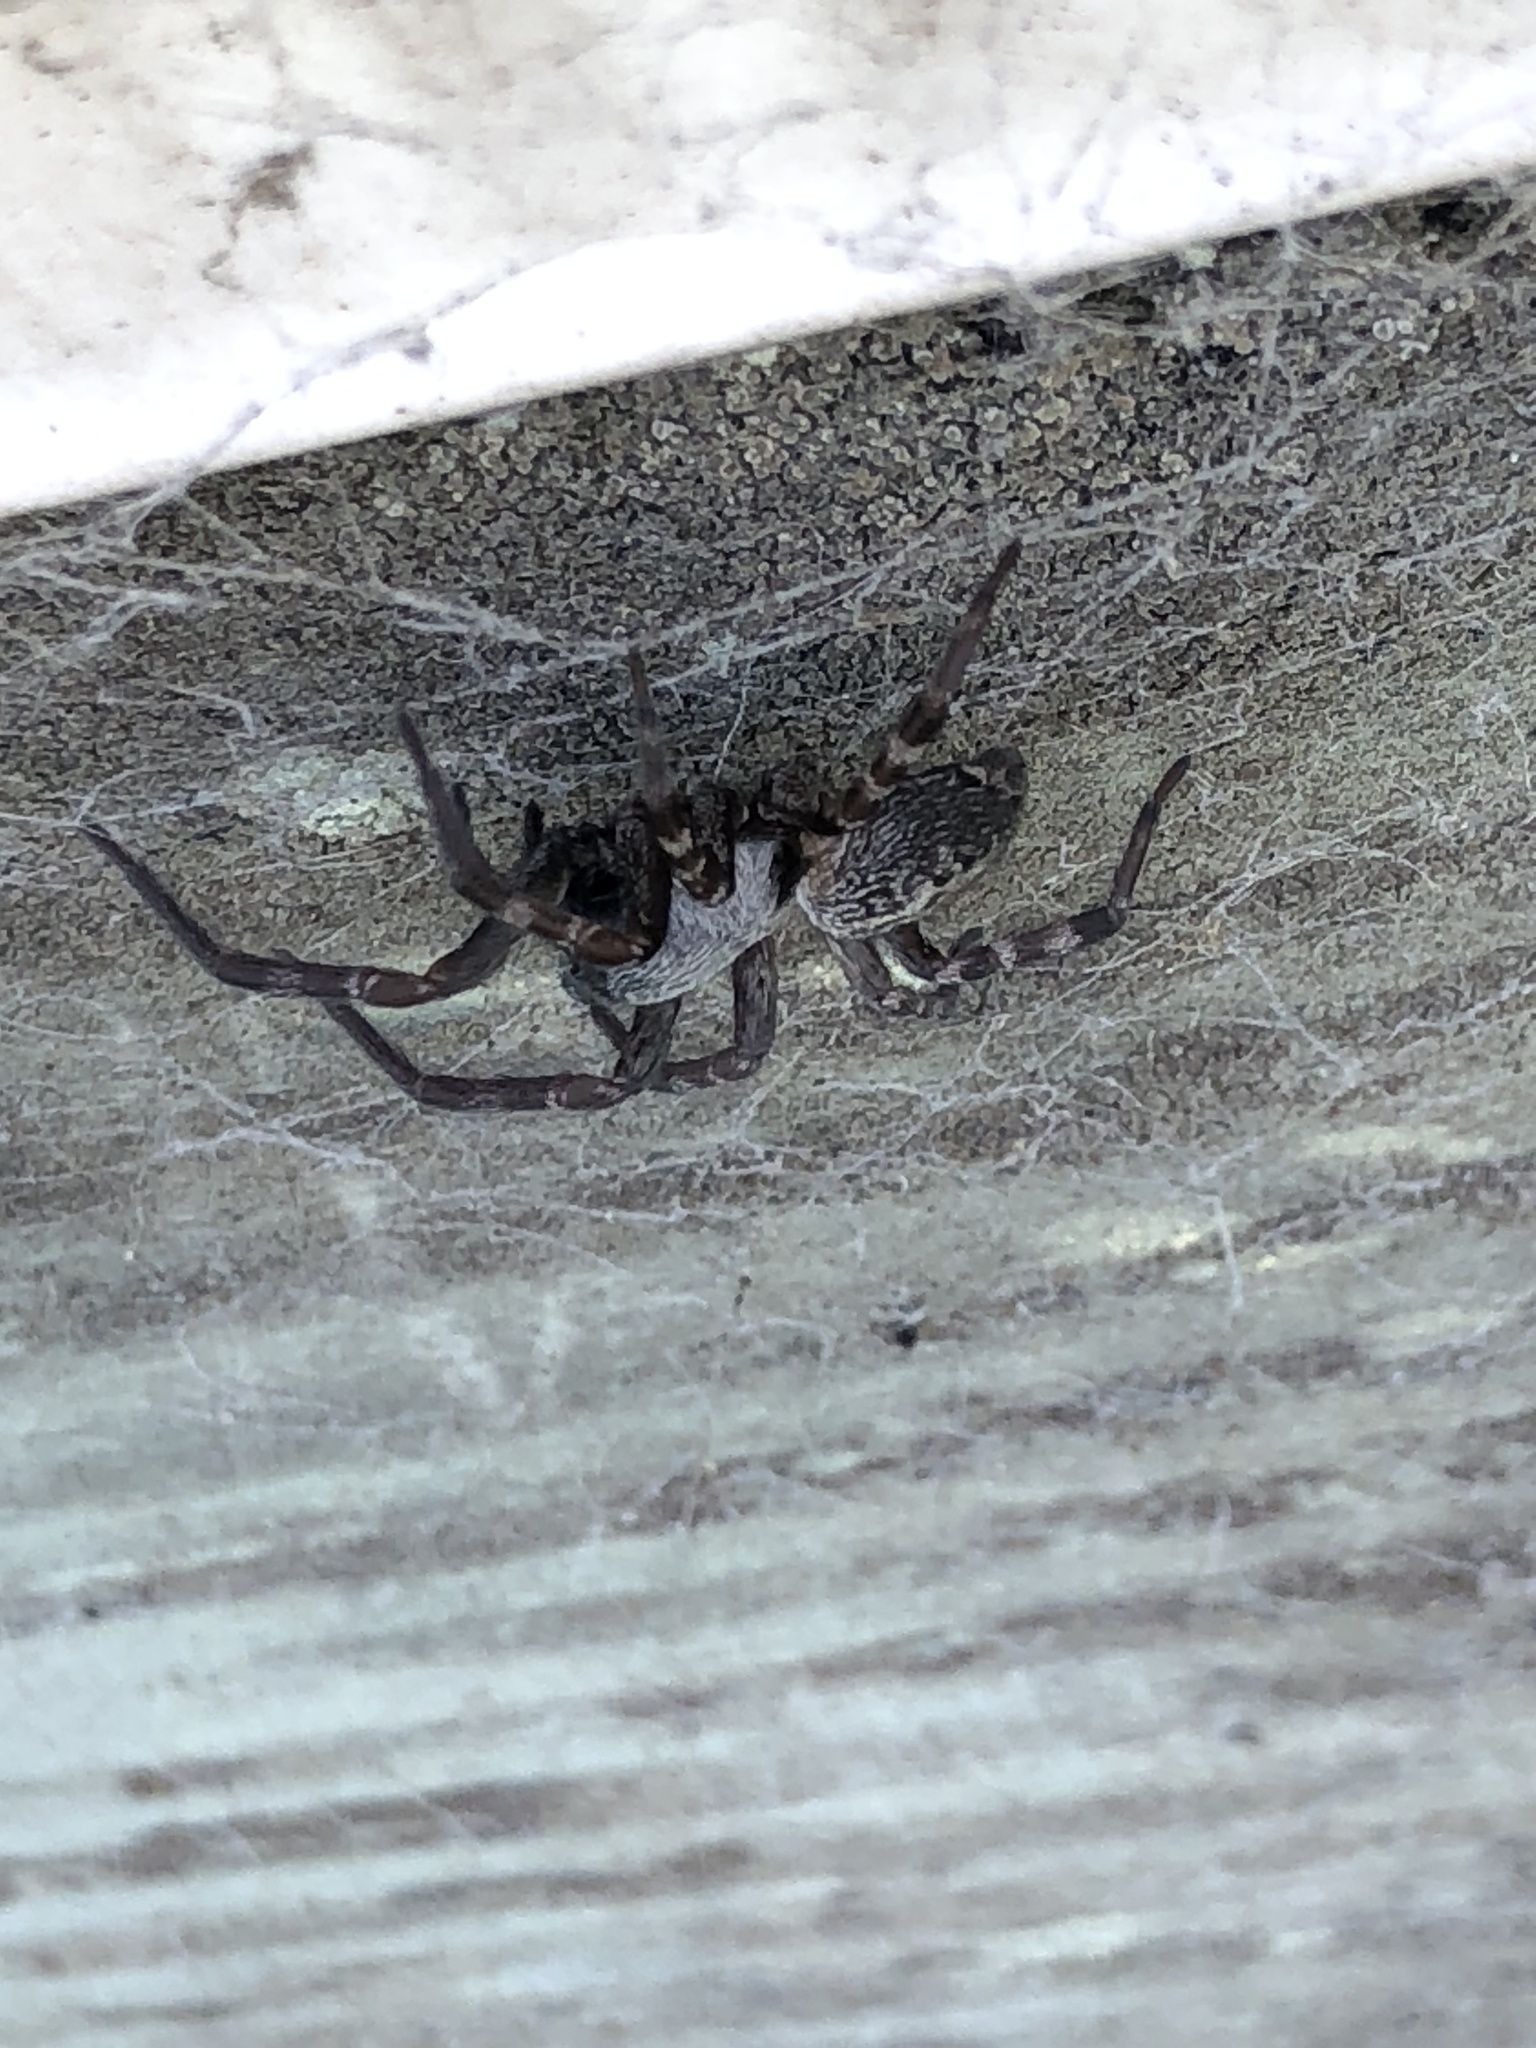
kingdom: Animalia
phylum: Arthropoda
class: Arachnida
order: Araneae
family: Desidae
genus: Badumna
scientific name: Badumna longinqua
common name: Gray house spider
